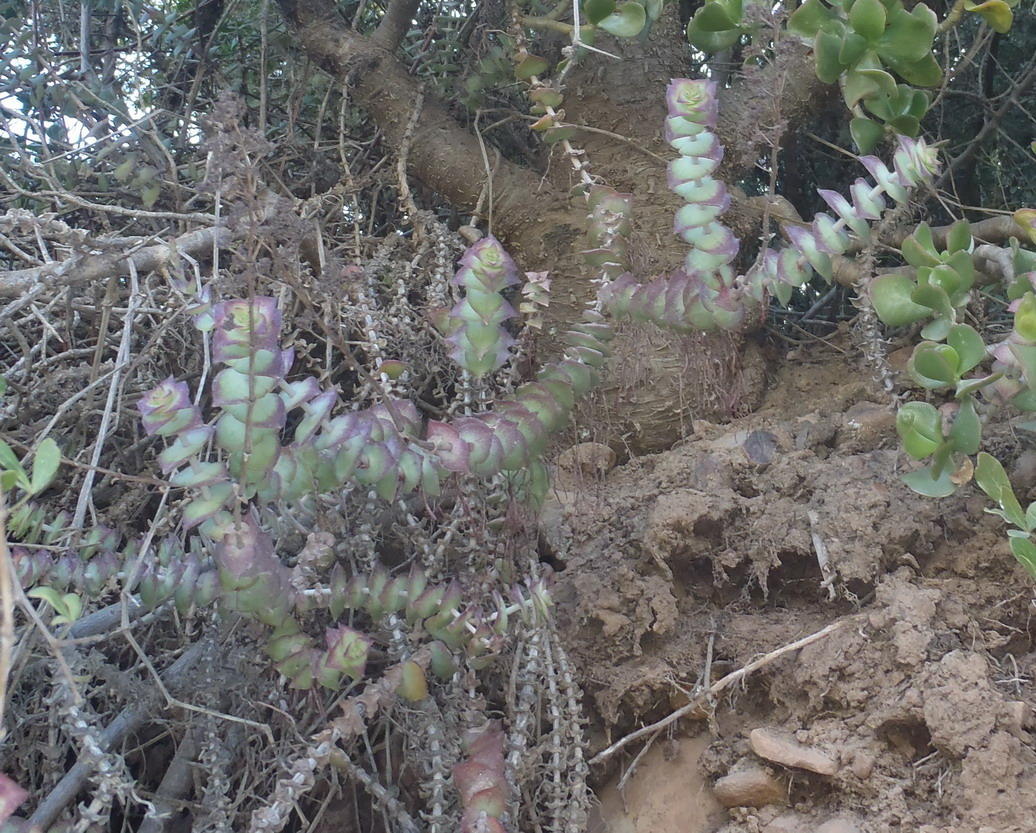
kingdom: Plantae
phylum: Tracheophyta
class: Magnoliopsida
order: Saxifragales
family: Crassulaceae
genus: Crassula
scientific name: Crassula perforata
